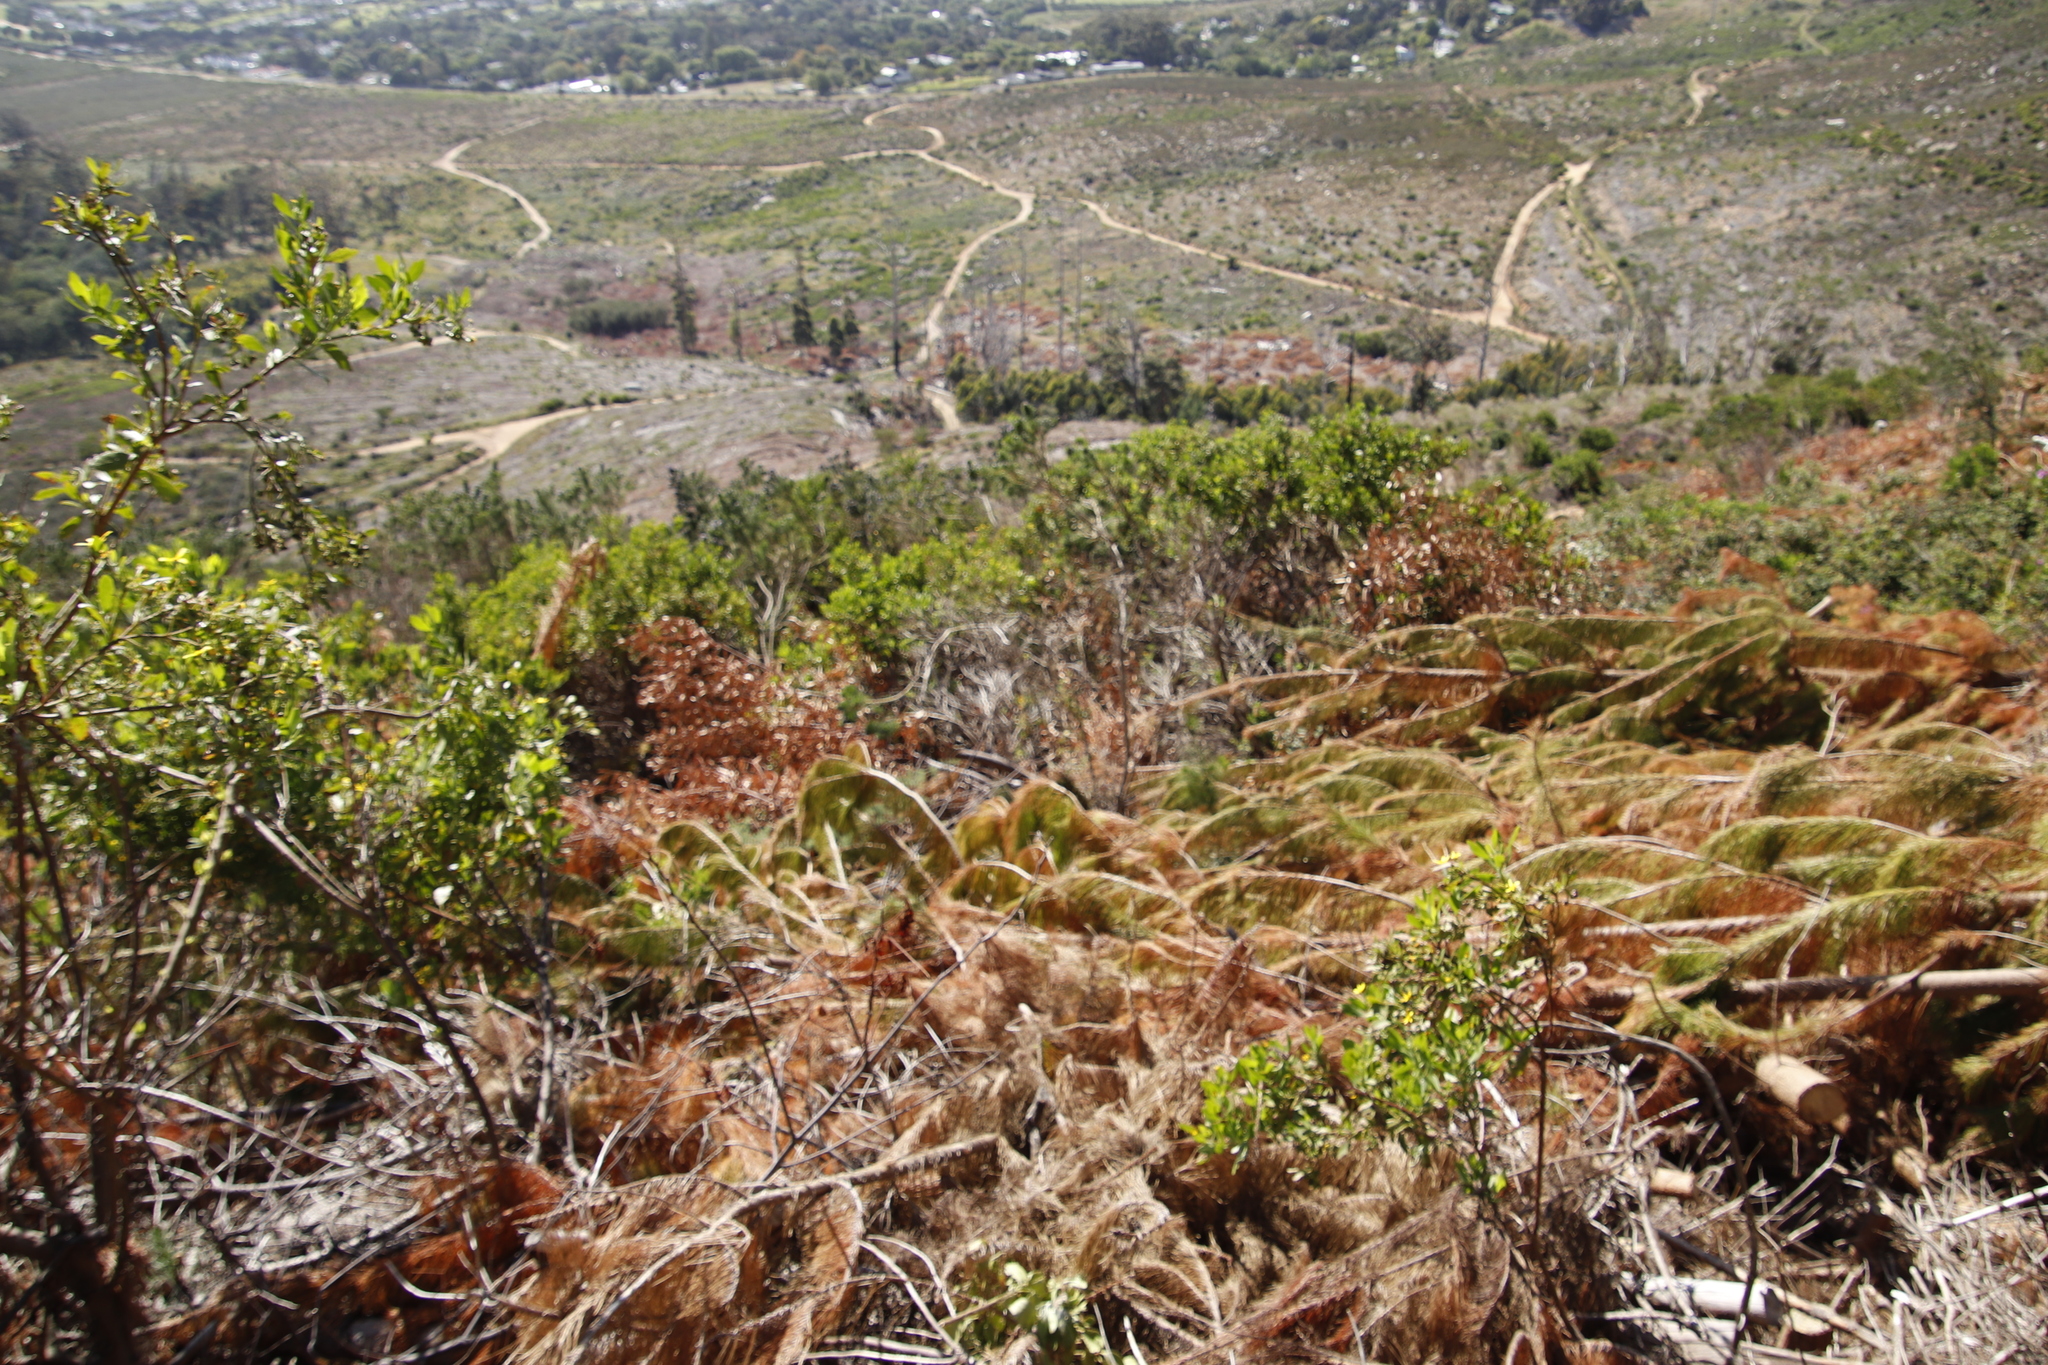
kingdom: Plantae
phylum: Tracheophyta
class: Pinopsida
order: Pinales
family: Pinaceae
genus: Pinus
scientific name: Pinus radiata
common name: Monterey pine
